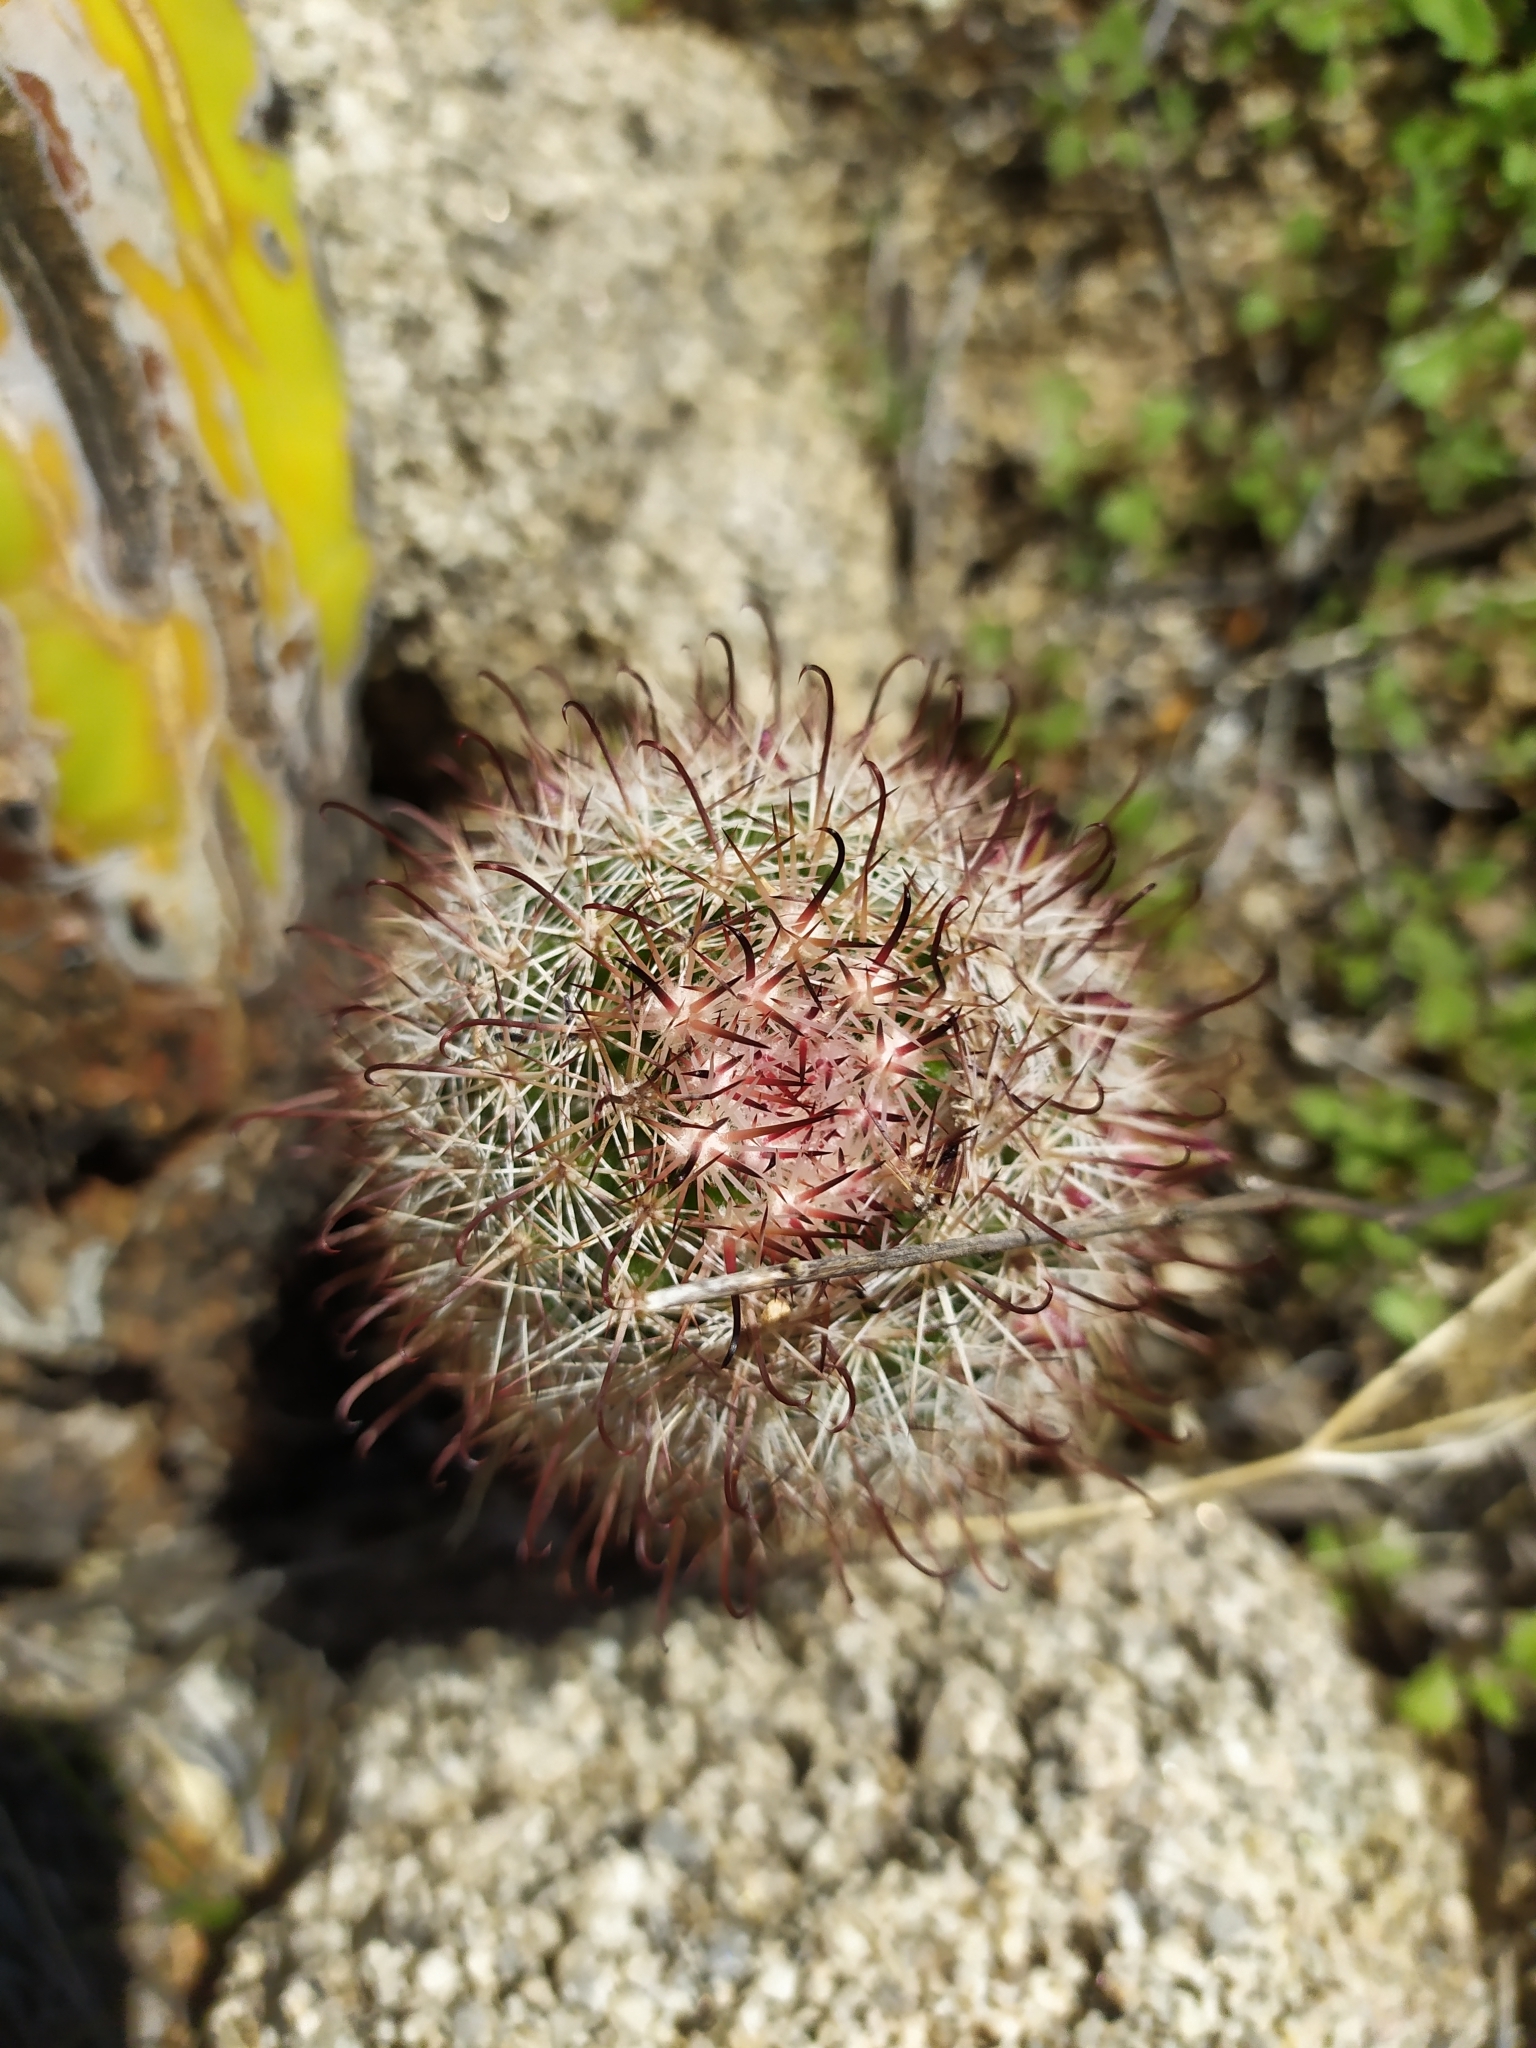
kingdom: Plantae
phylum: Tracheophyta
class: Magnoliopsida
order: Caryophyllales
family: Cactaceae
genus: Cochemiea
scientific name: Cochemiea dioica
